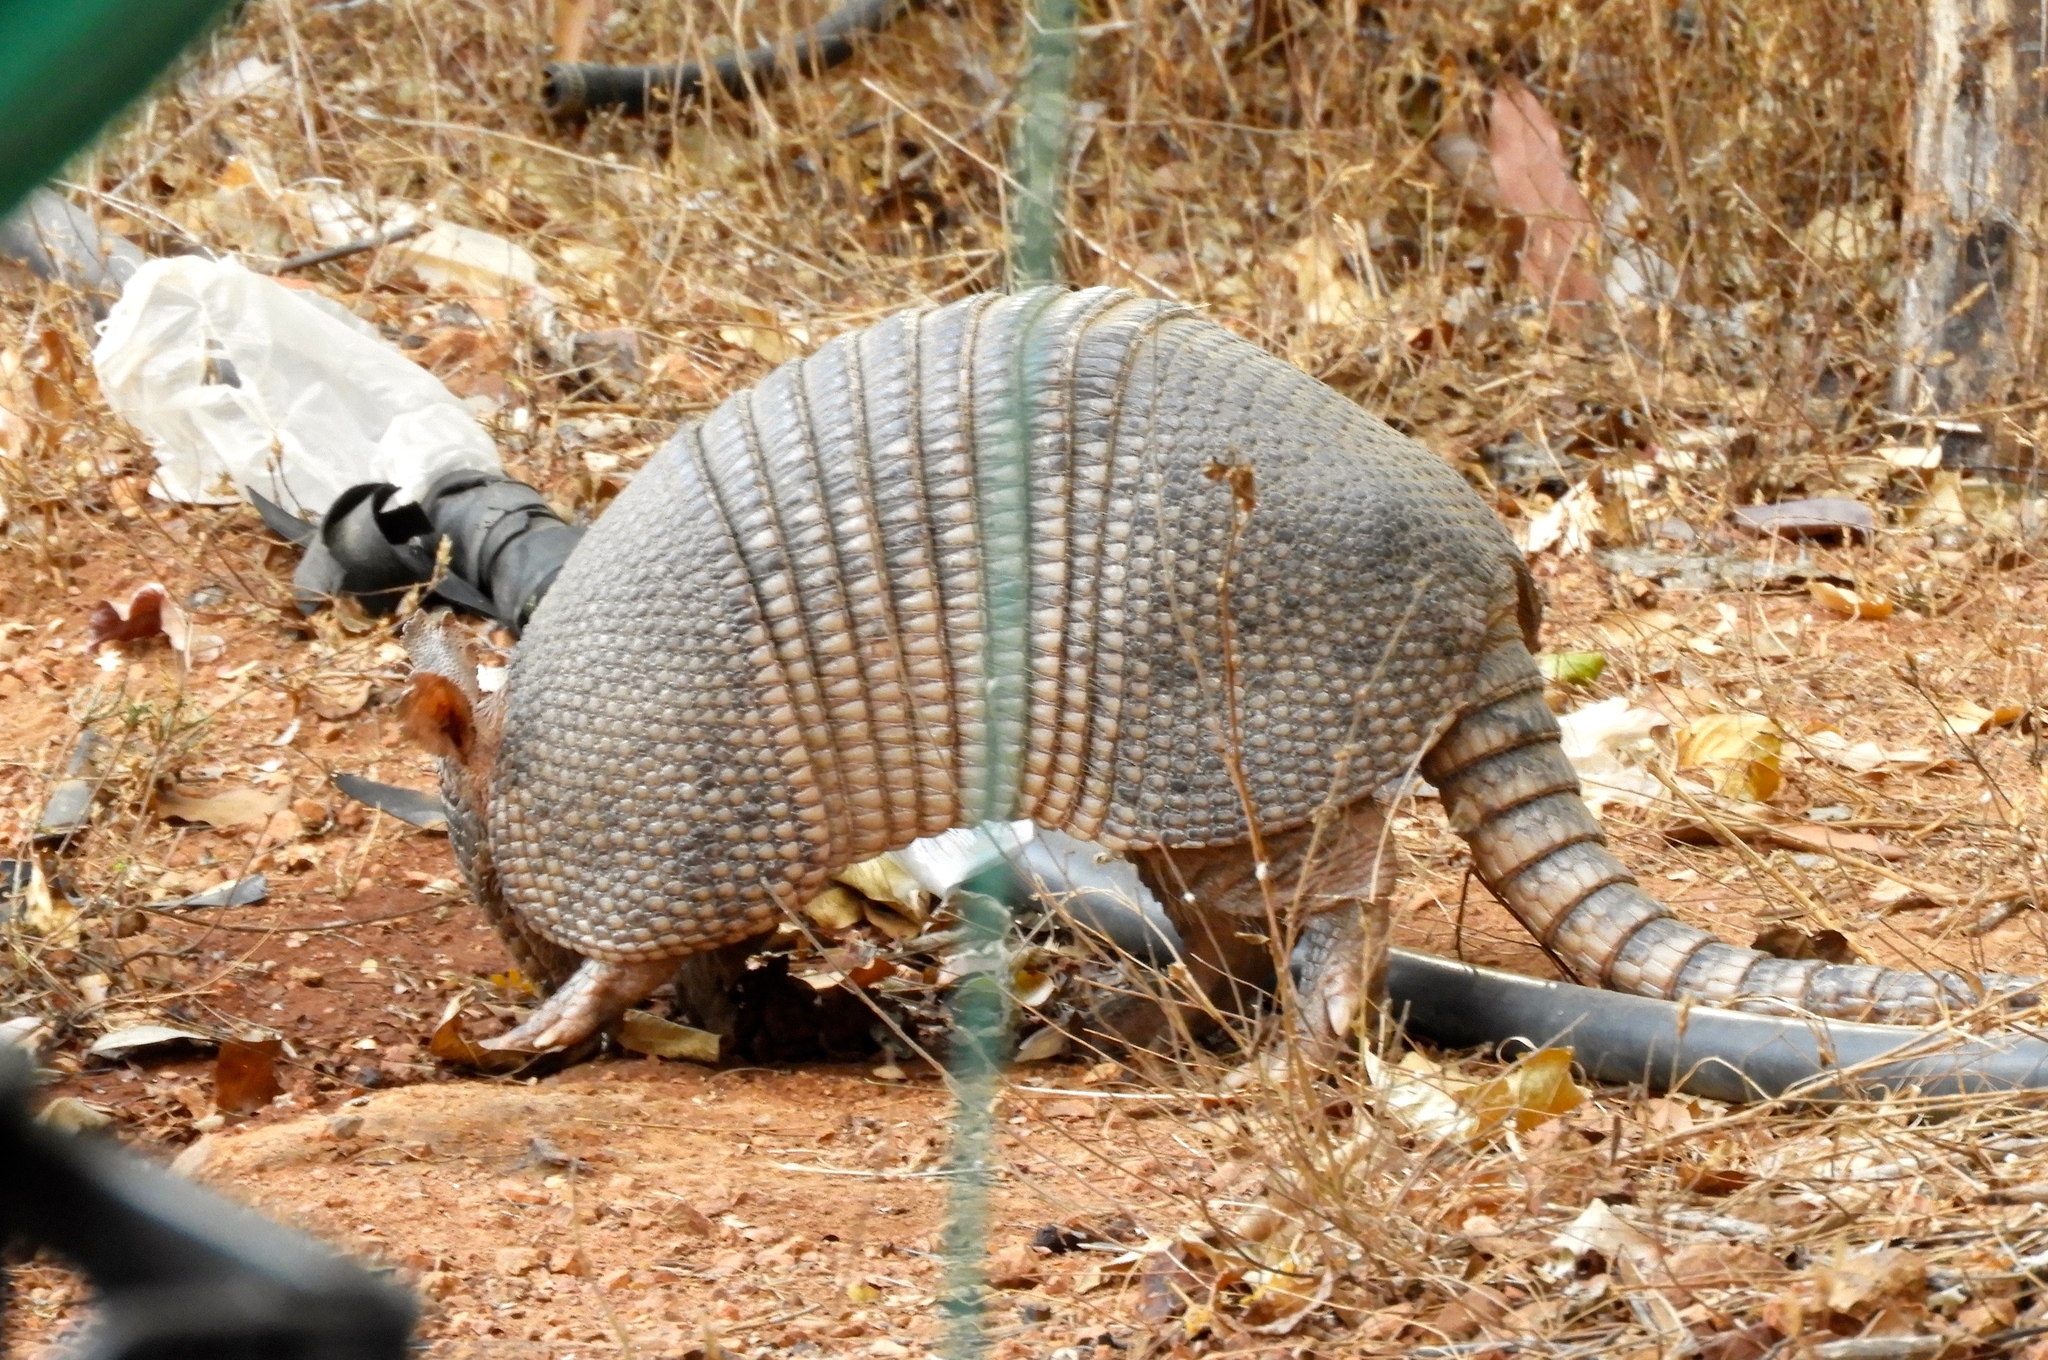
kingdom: Animalia
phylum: Chordata
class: Mammalia
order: Cingulata
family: Dasypodidae
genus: Dasypus
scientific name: Dasypus novemcinctus
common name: Nine-banded armadillo
